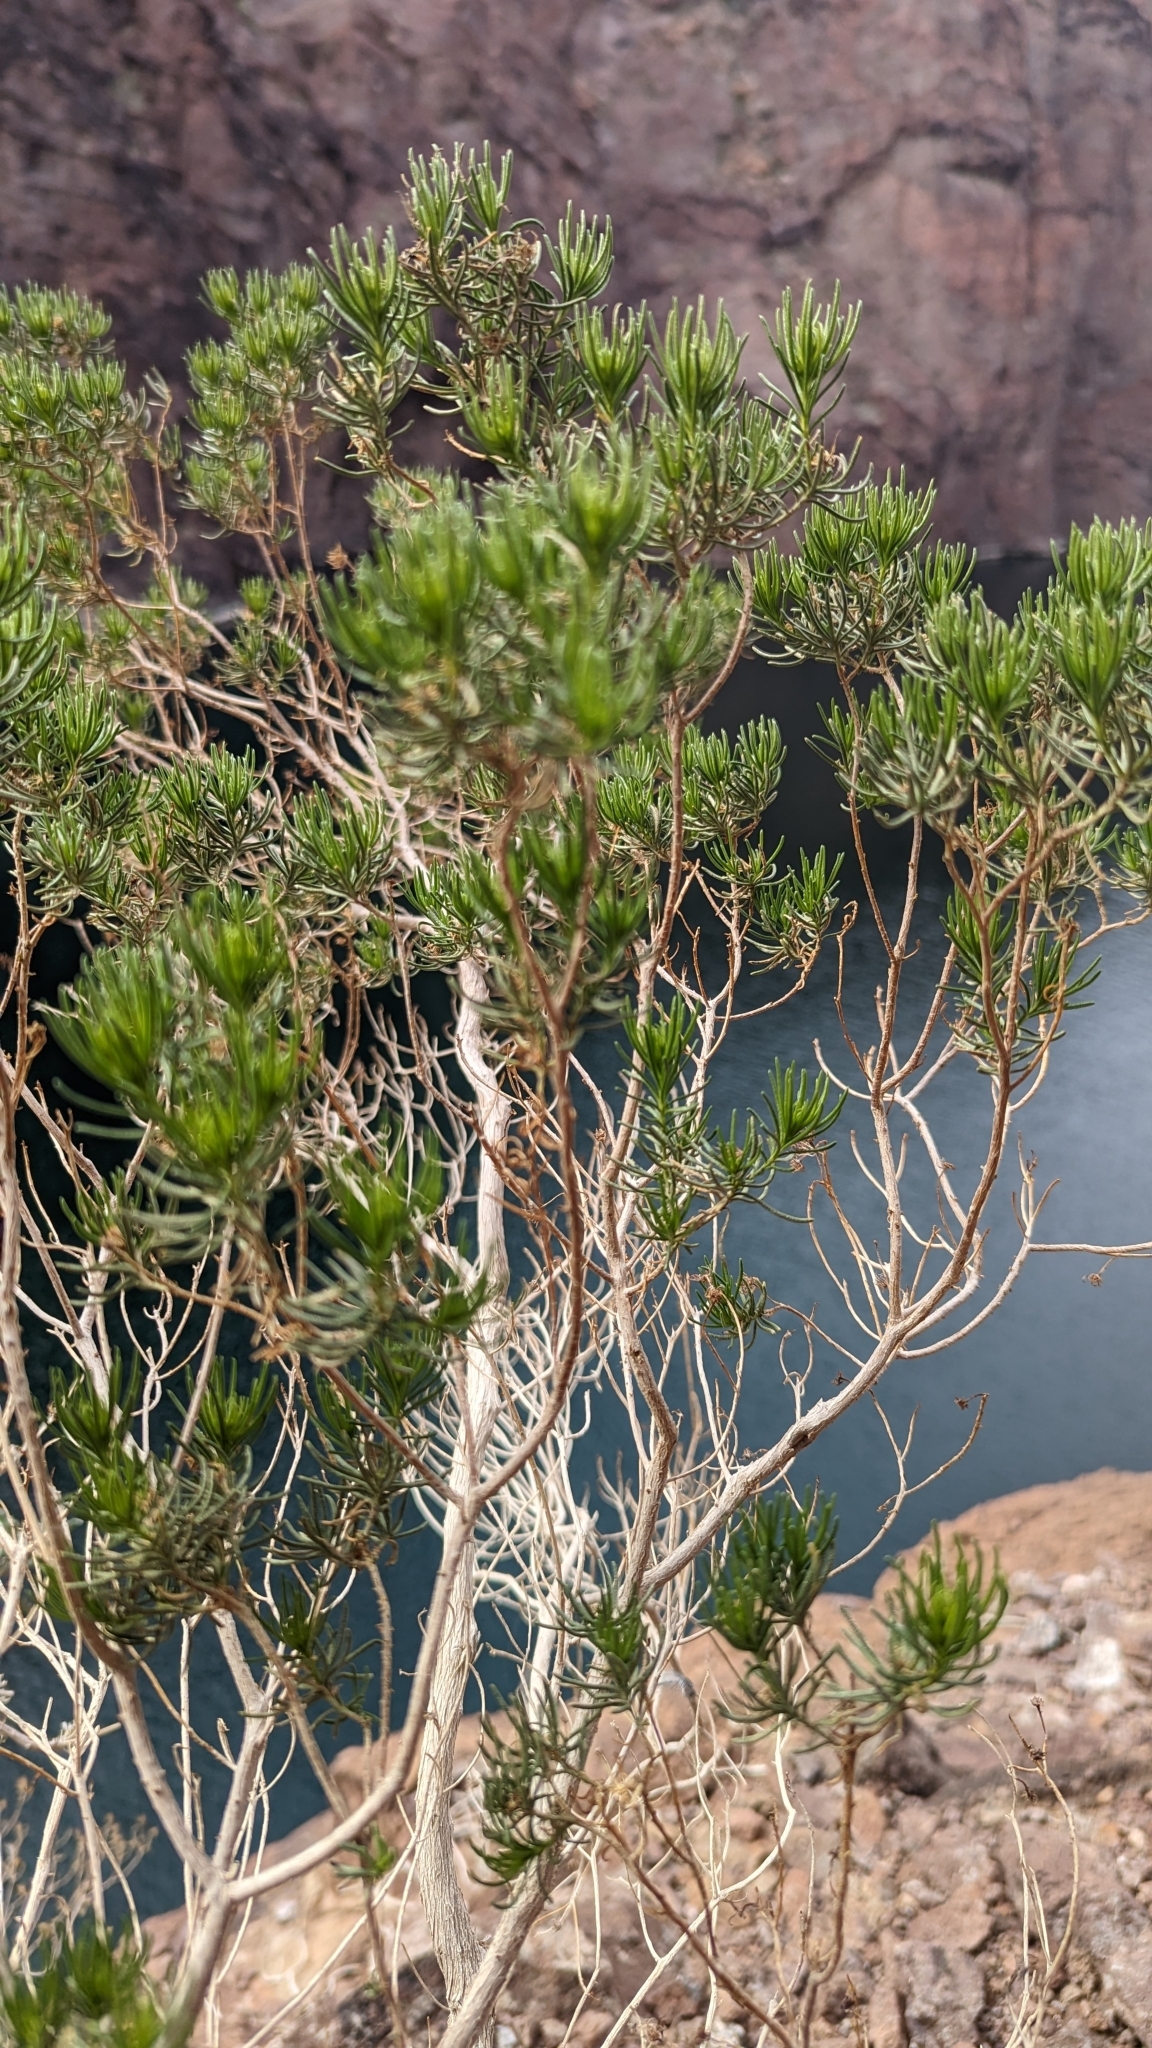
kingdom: Plantae
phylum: Tracheophyta
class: Magnoliopsida
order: Asterales
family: Asteraceae
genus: Peucephyllum
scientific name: Peucephyllum schottii
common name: Pygmy-cedar
